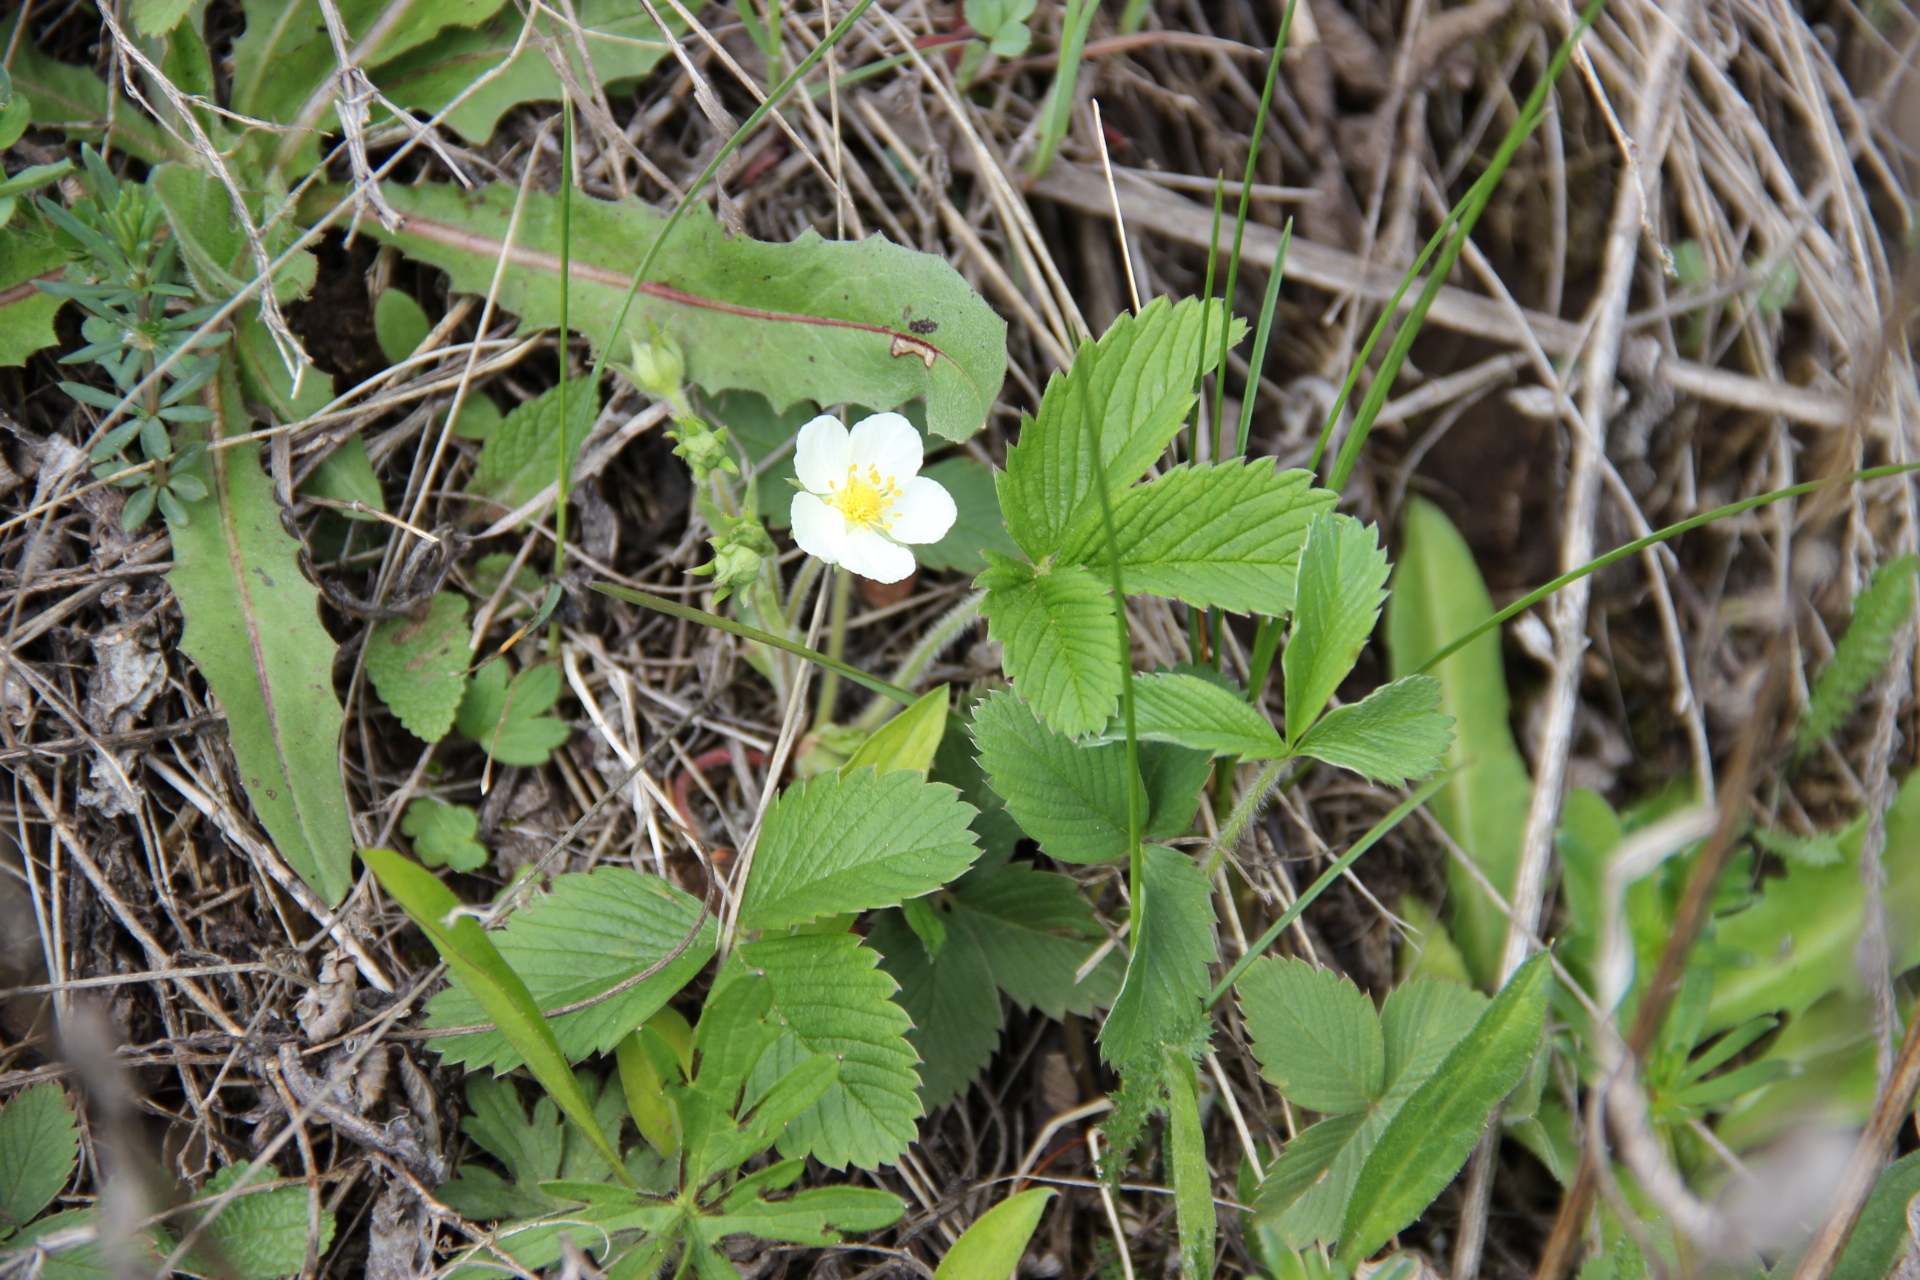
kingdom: Plantae
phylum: Tracheophyta
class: Magnoliopsida
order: Rosales
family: Rosaceae
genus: Fragaria
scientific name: Fragaria viridis
